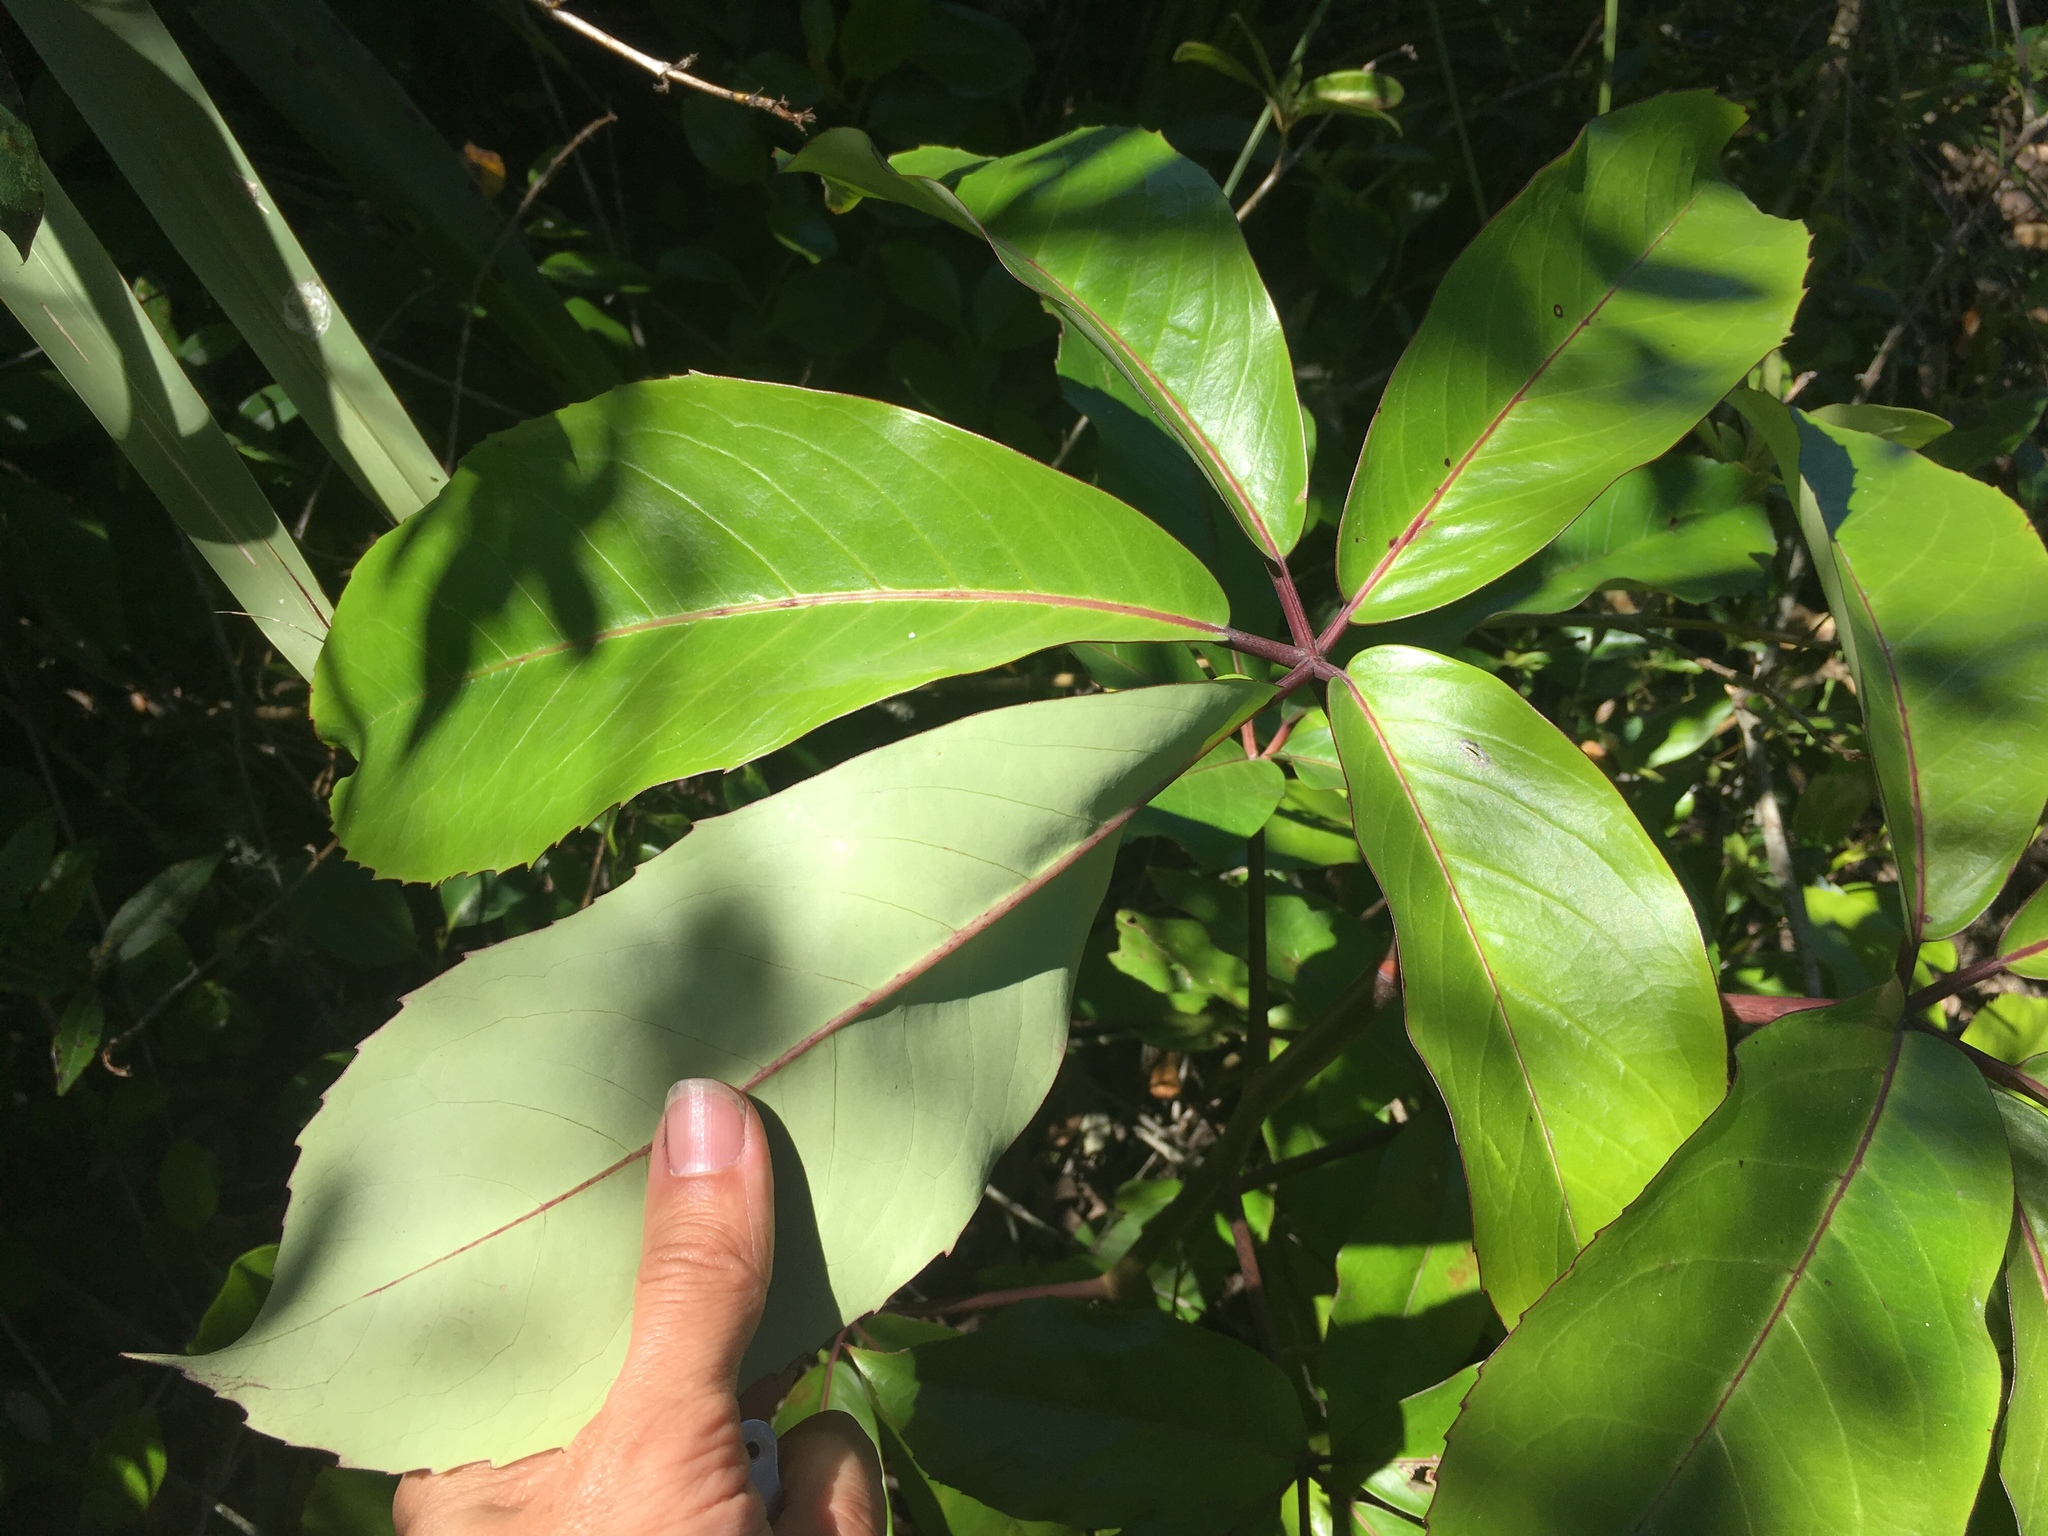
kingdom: Plantae
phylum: Tracheophyta
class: Magnoliopsida
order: Apiales
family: Araliaceae
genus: Neopanax
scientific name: Neopanax laetus
